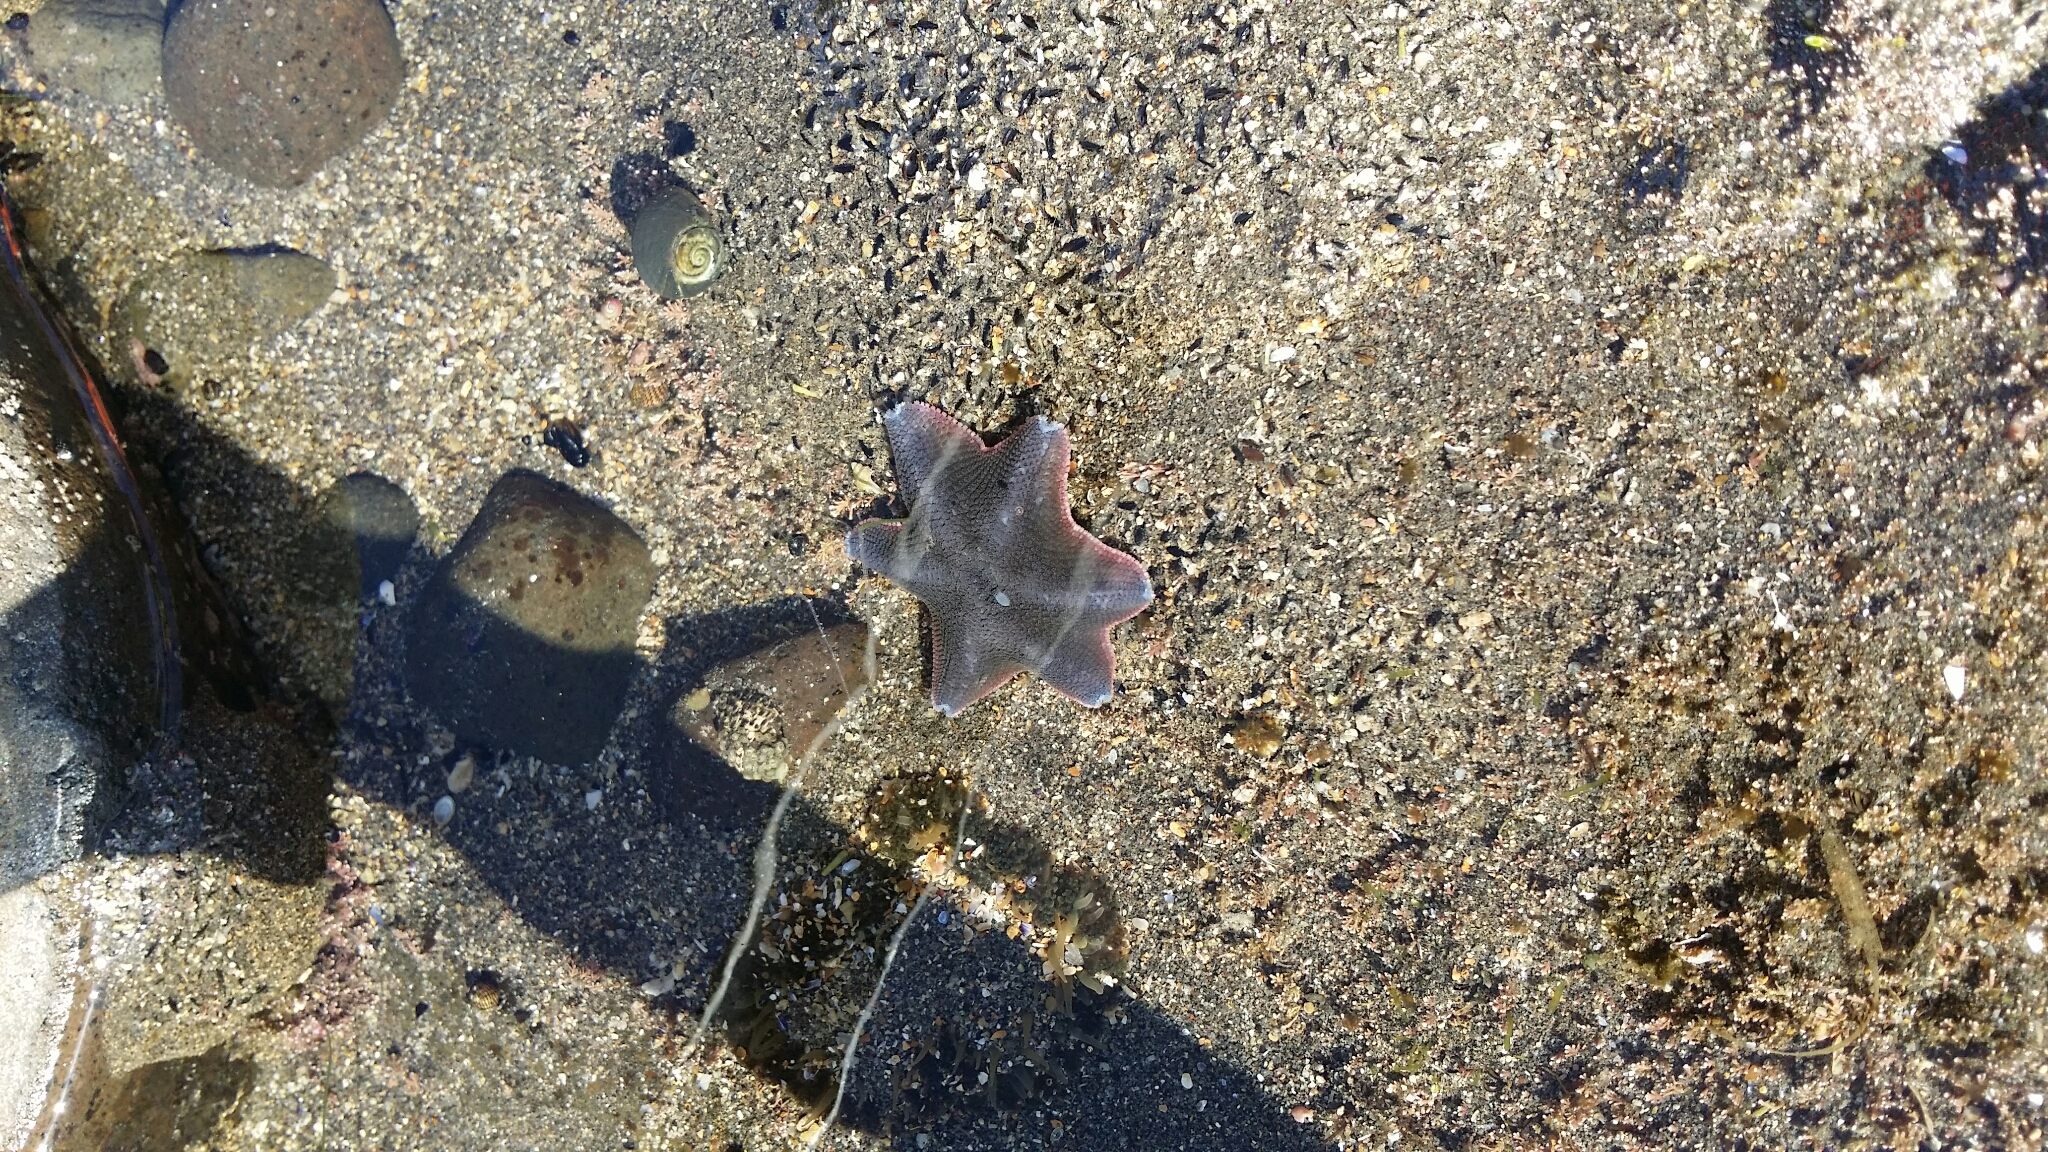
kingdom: Animalia
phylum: Echinodermata
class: Asteroidea
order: Valvatida
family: Asterinidae
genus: Patiriella
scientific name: Patiriella regularis
